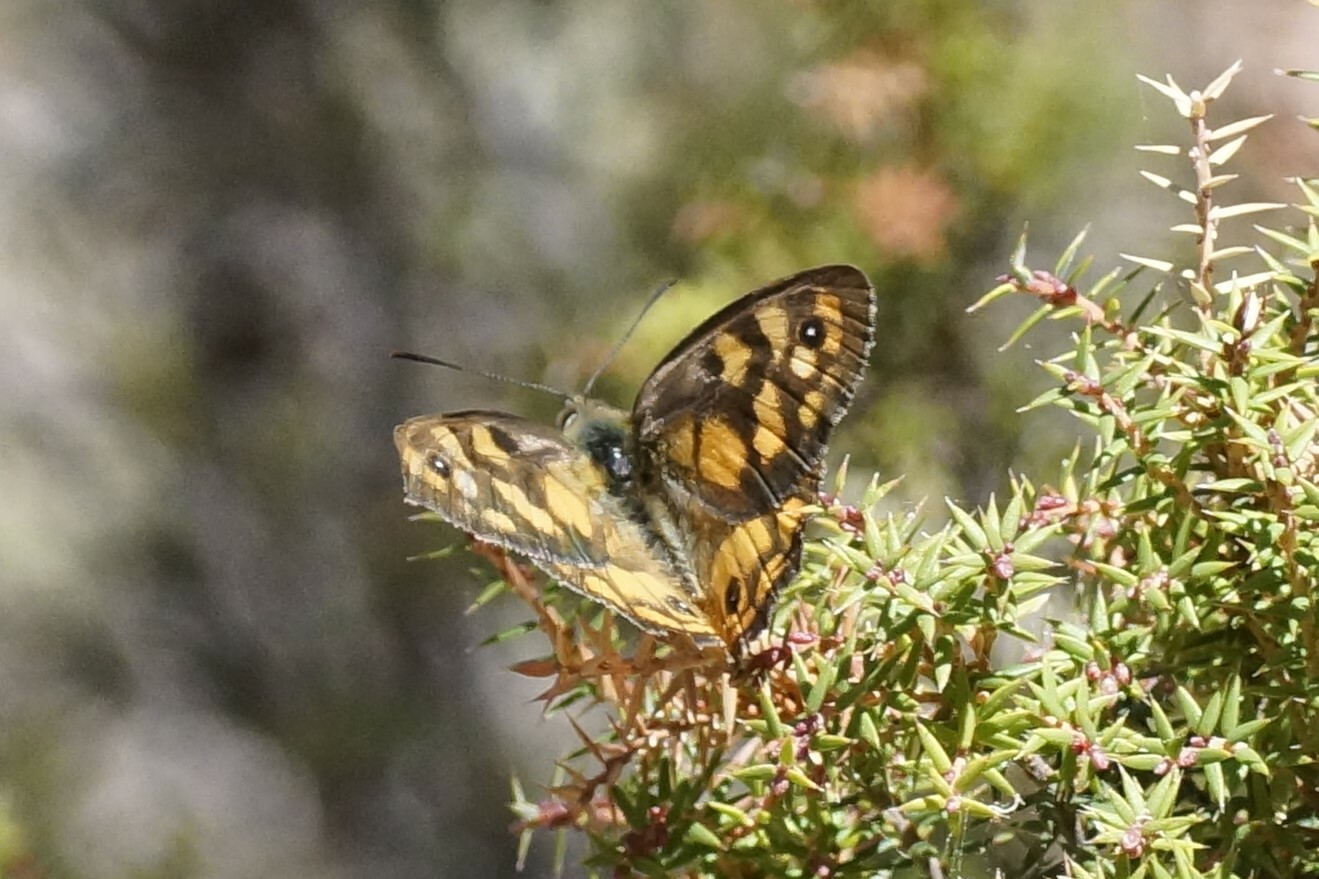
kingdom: Animalia
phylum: Arthropoda
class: Insecta
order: Lepidoptera
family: Nymphalidae
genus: Heteronympha
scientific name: Heteronympha penelope
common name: Shouldered brown
